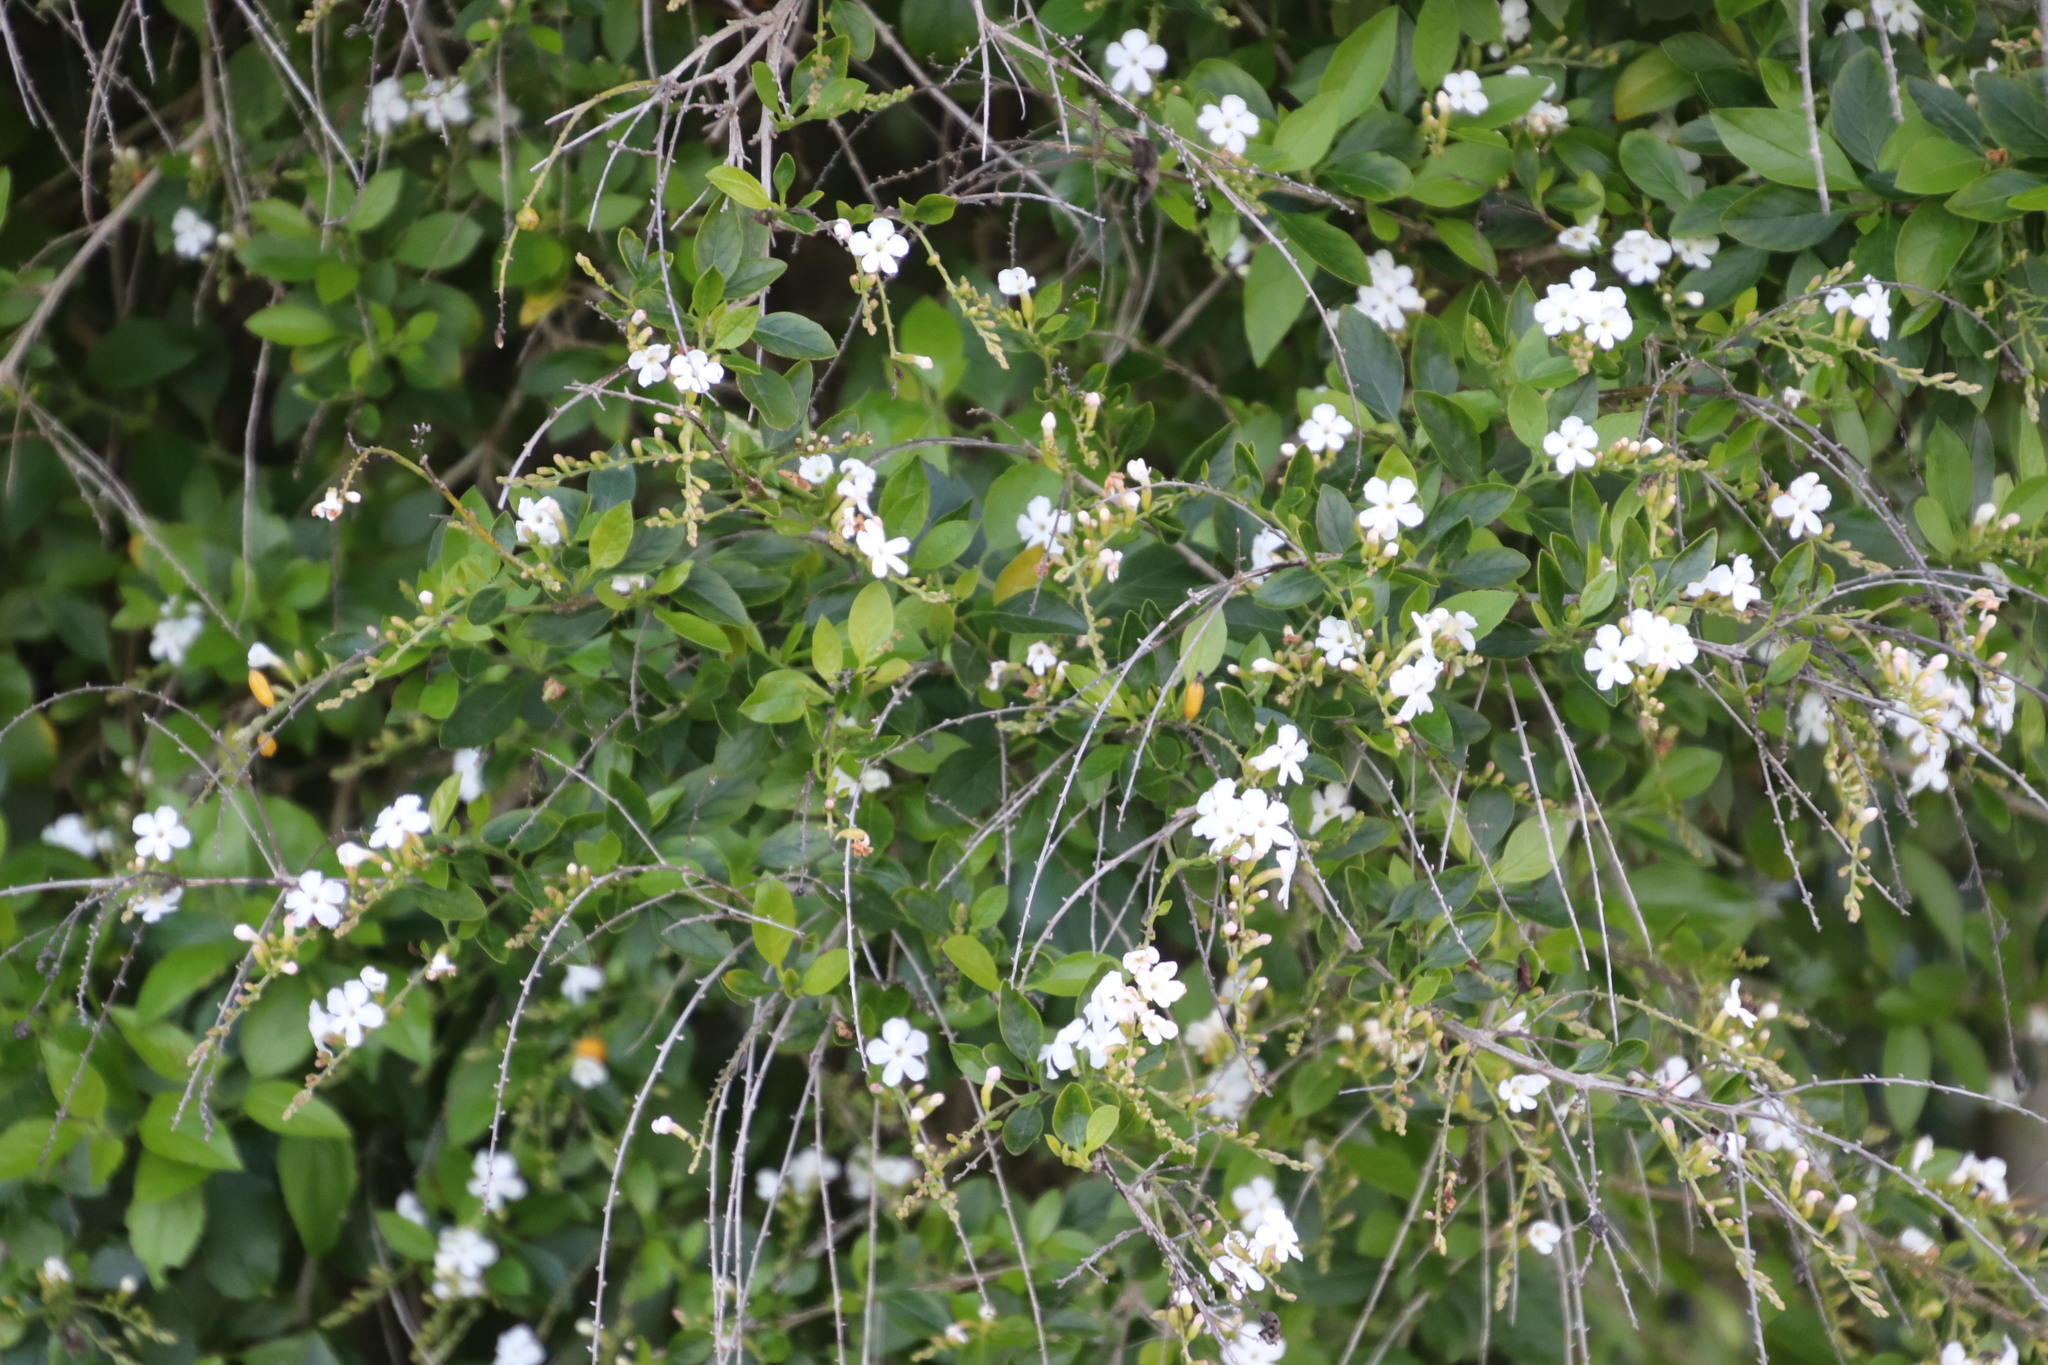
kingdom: Plantae
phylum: Tracheophyta
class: Magnoliopsida
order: Lamiales
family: Verbenaceae
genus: Duranta
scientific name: Duranta erecta
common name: Golden dewdrops
